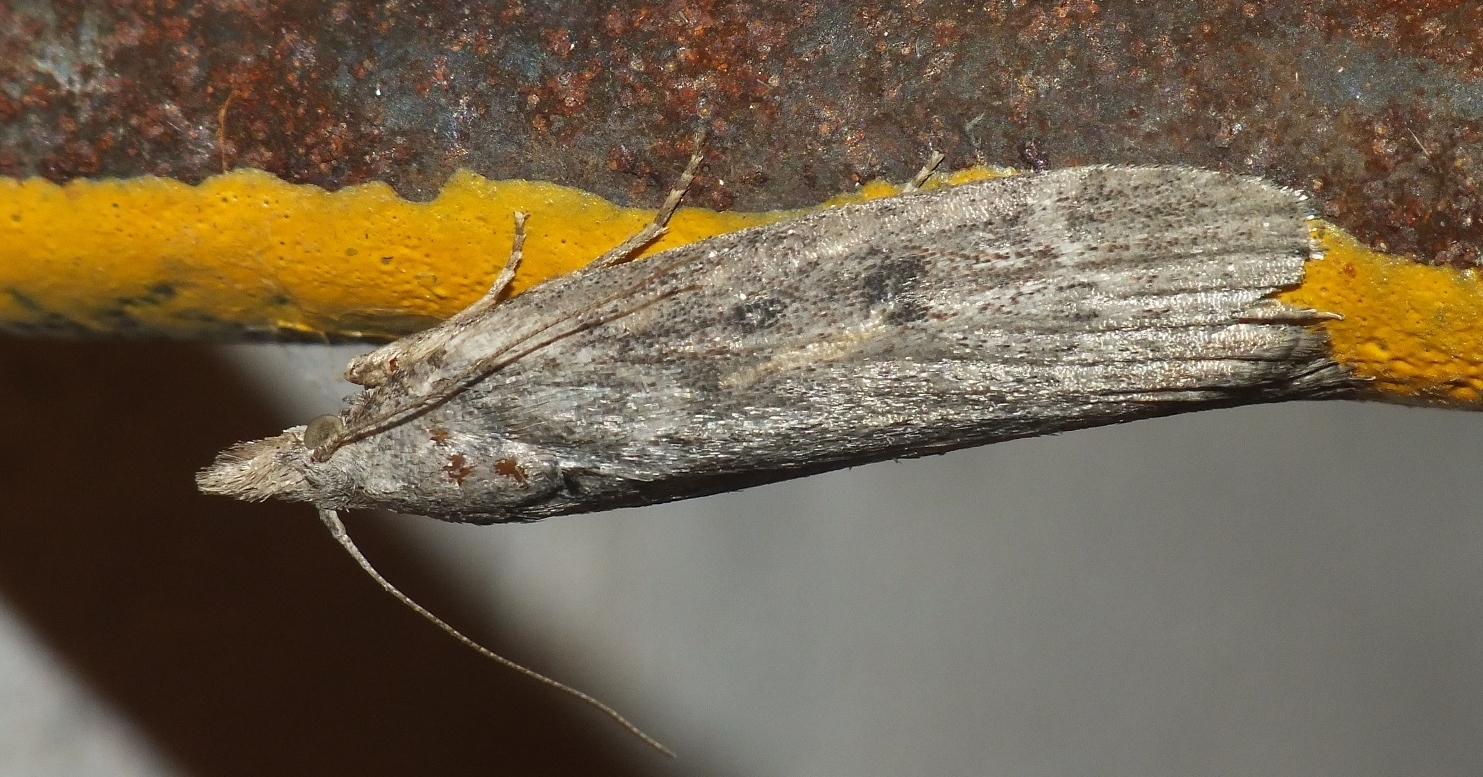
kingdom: Animalia
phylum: Arthropoda
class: Insecta
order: Lepidoptera
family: Pyralidae
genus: Lamoria
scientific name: Lamoria anella
